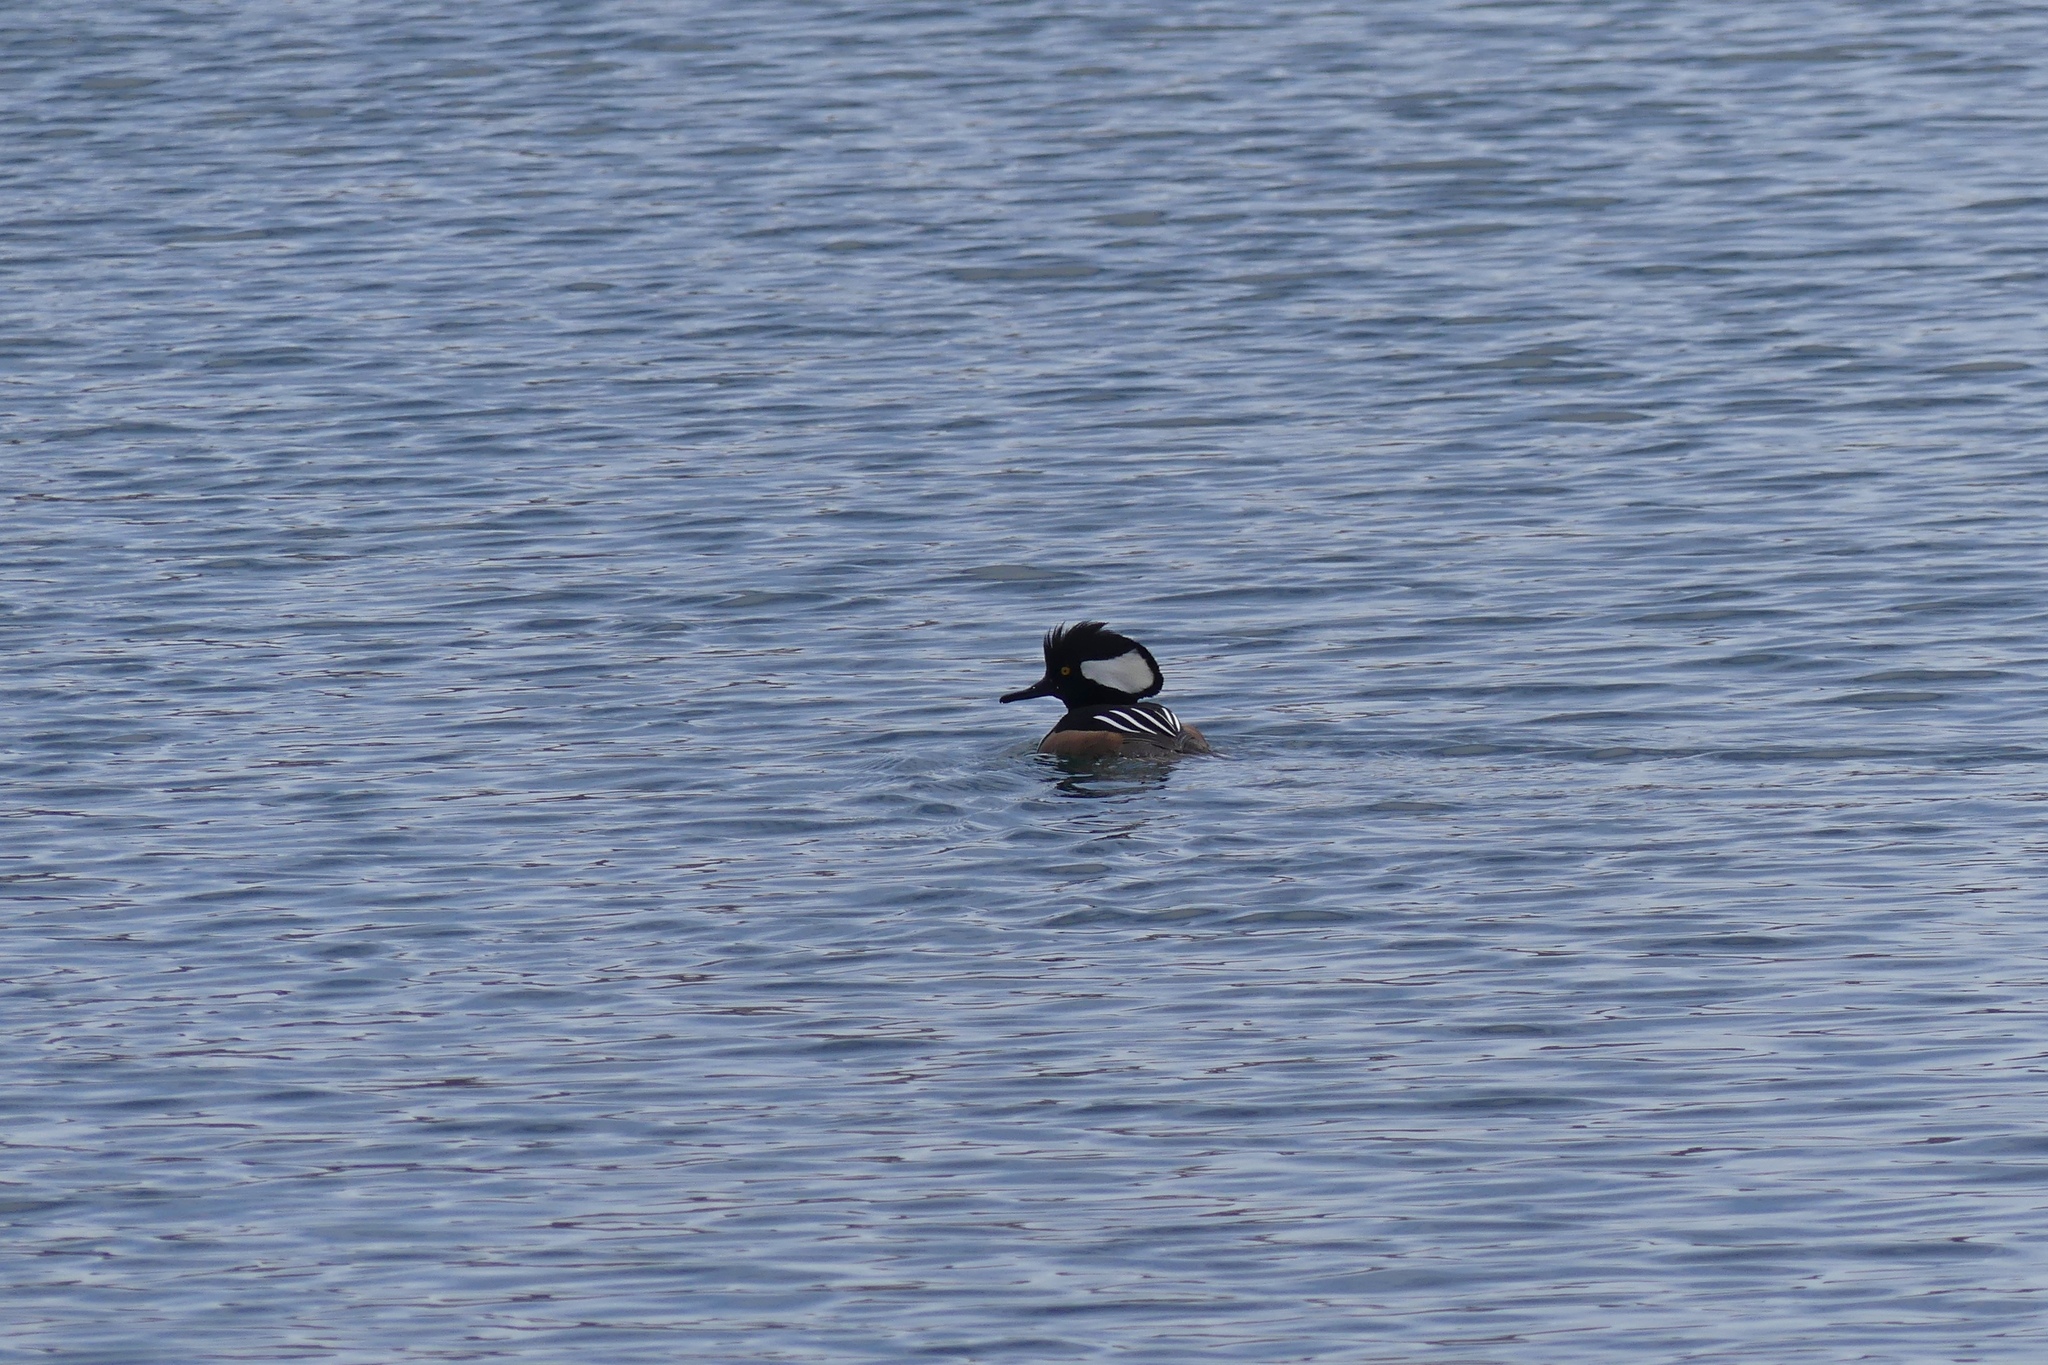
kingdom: Animalia
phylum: Chordata
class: Aves
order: Anseriformes
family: Anatidae
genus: Lophodytes
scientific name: Lophodytes cucullatus
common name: Hooded merganser
